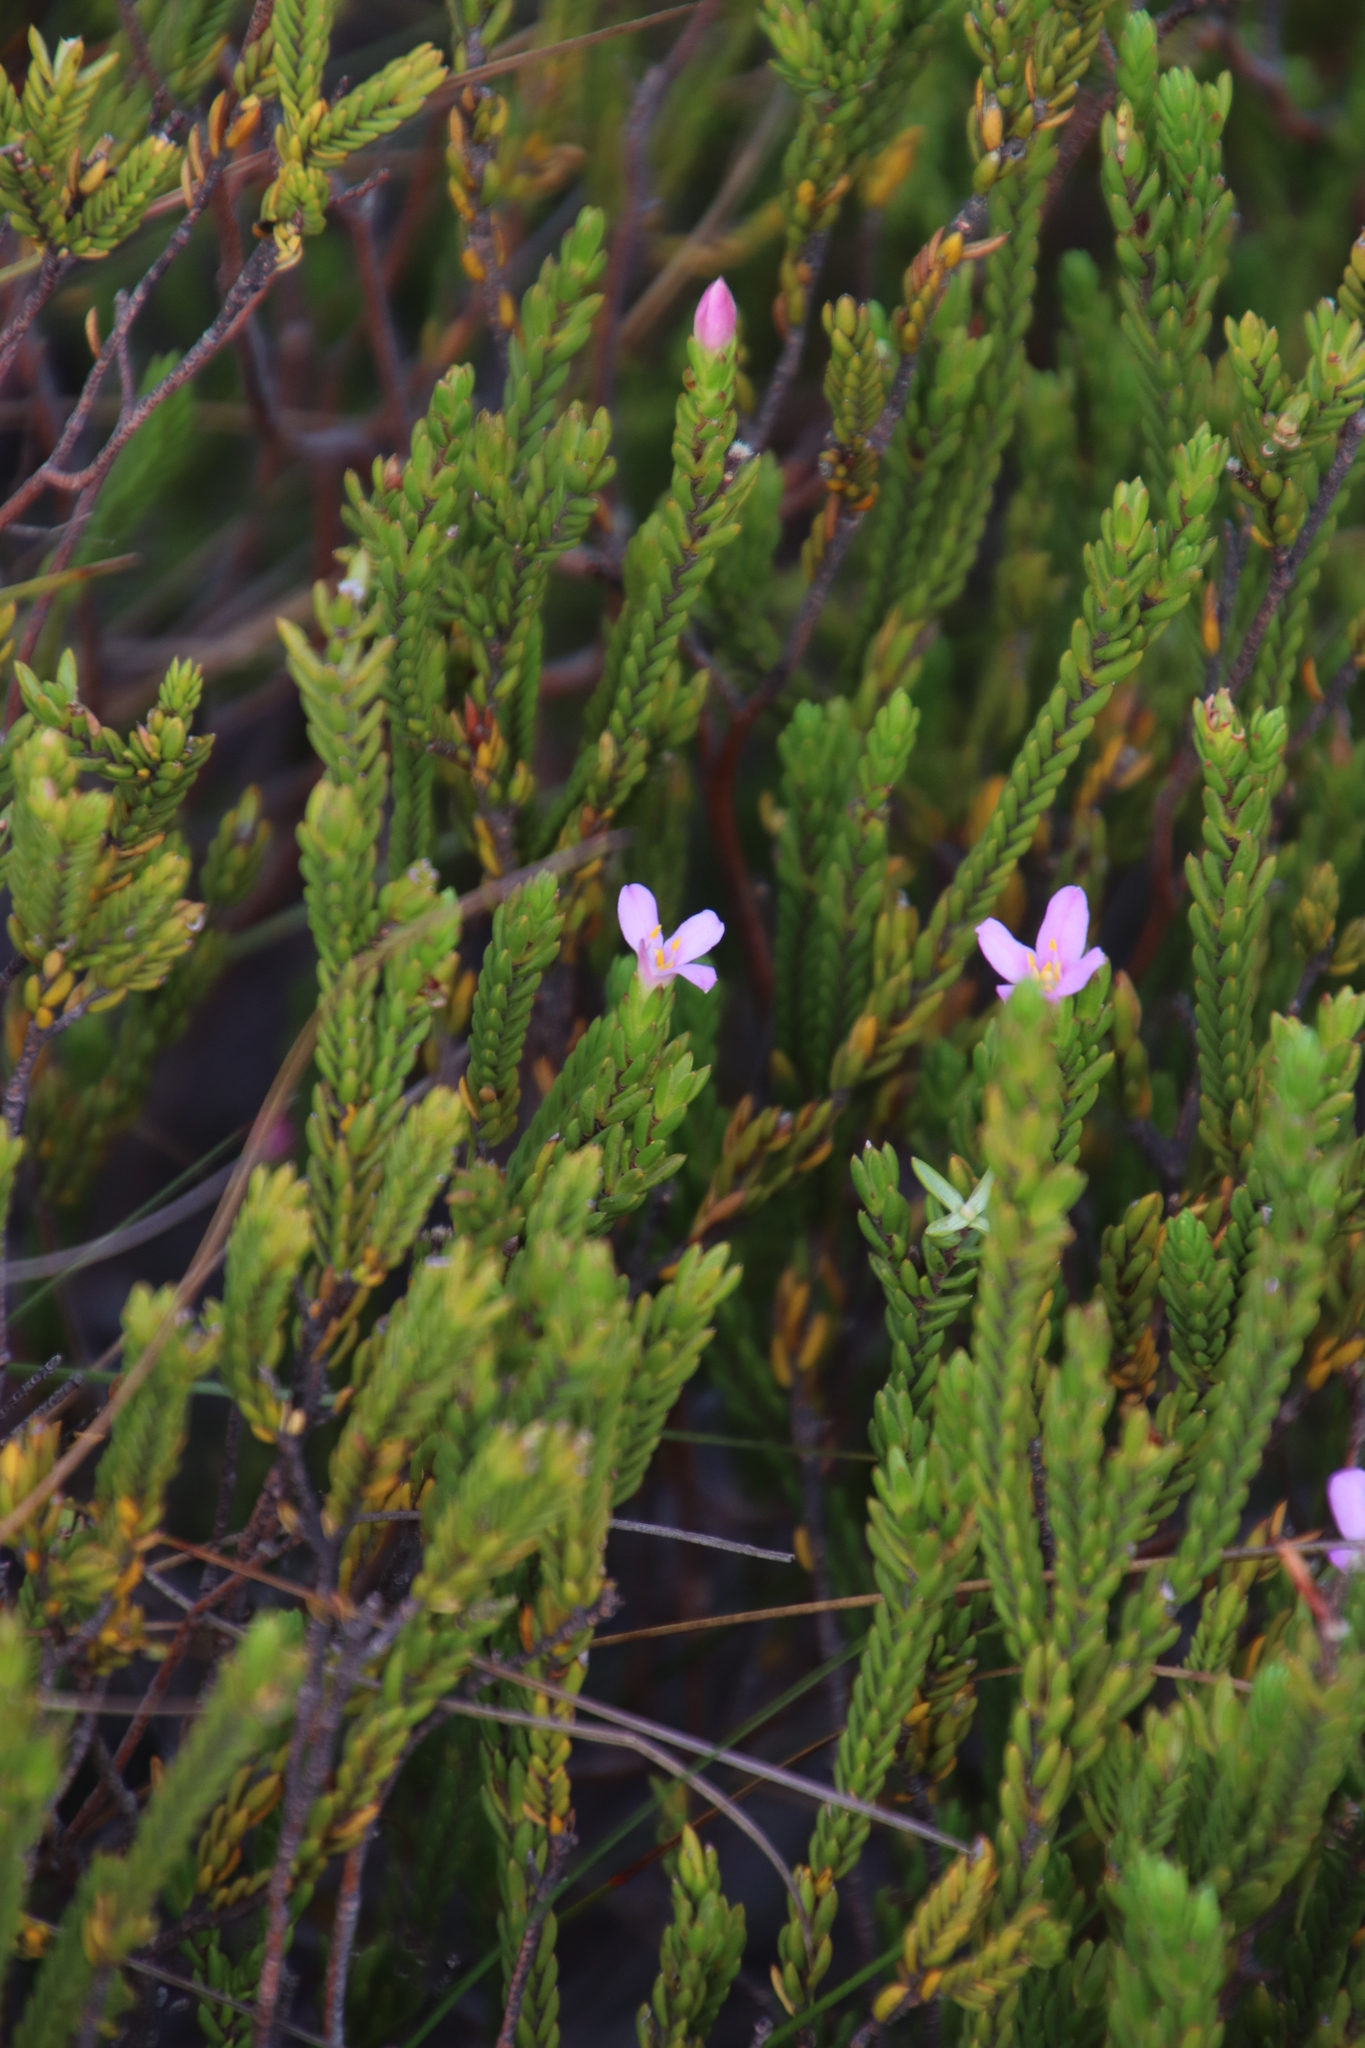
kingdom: Plantae
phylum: Tracheophyta
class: Magnoliopsida
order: Malvales
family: Thymelaeaceae
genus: Lachnaea
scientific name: Lachnaea grandiflora
